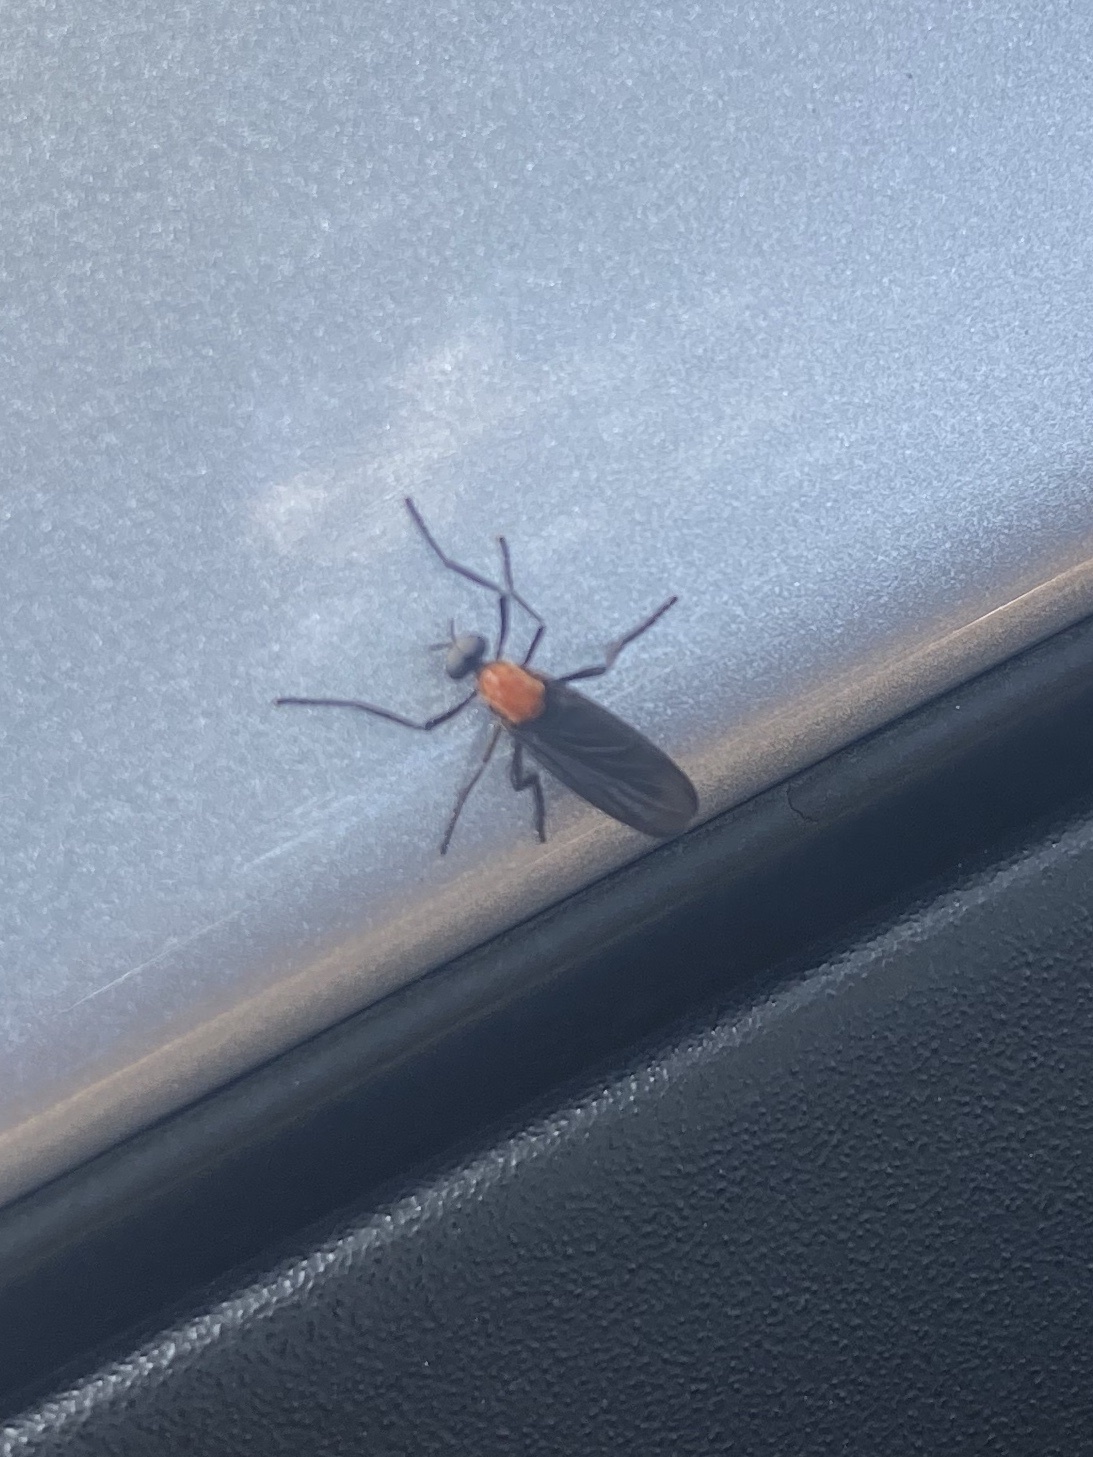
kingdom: Animalia
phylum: Arthropoda
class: Insecta
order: Diptera
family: Bibionidae
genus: Plecia
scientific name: Plecia nearctica
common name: March fly
